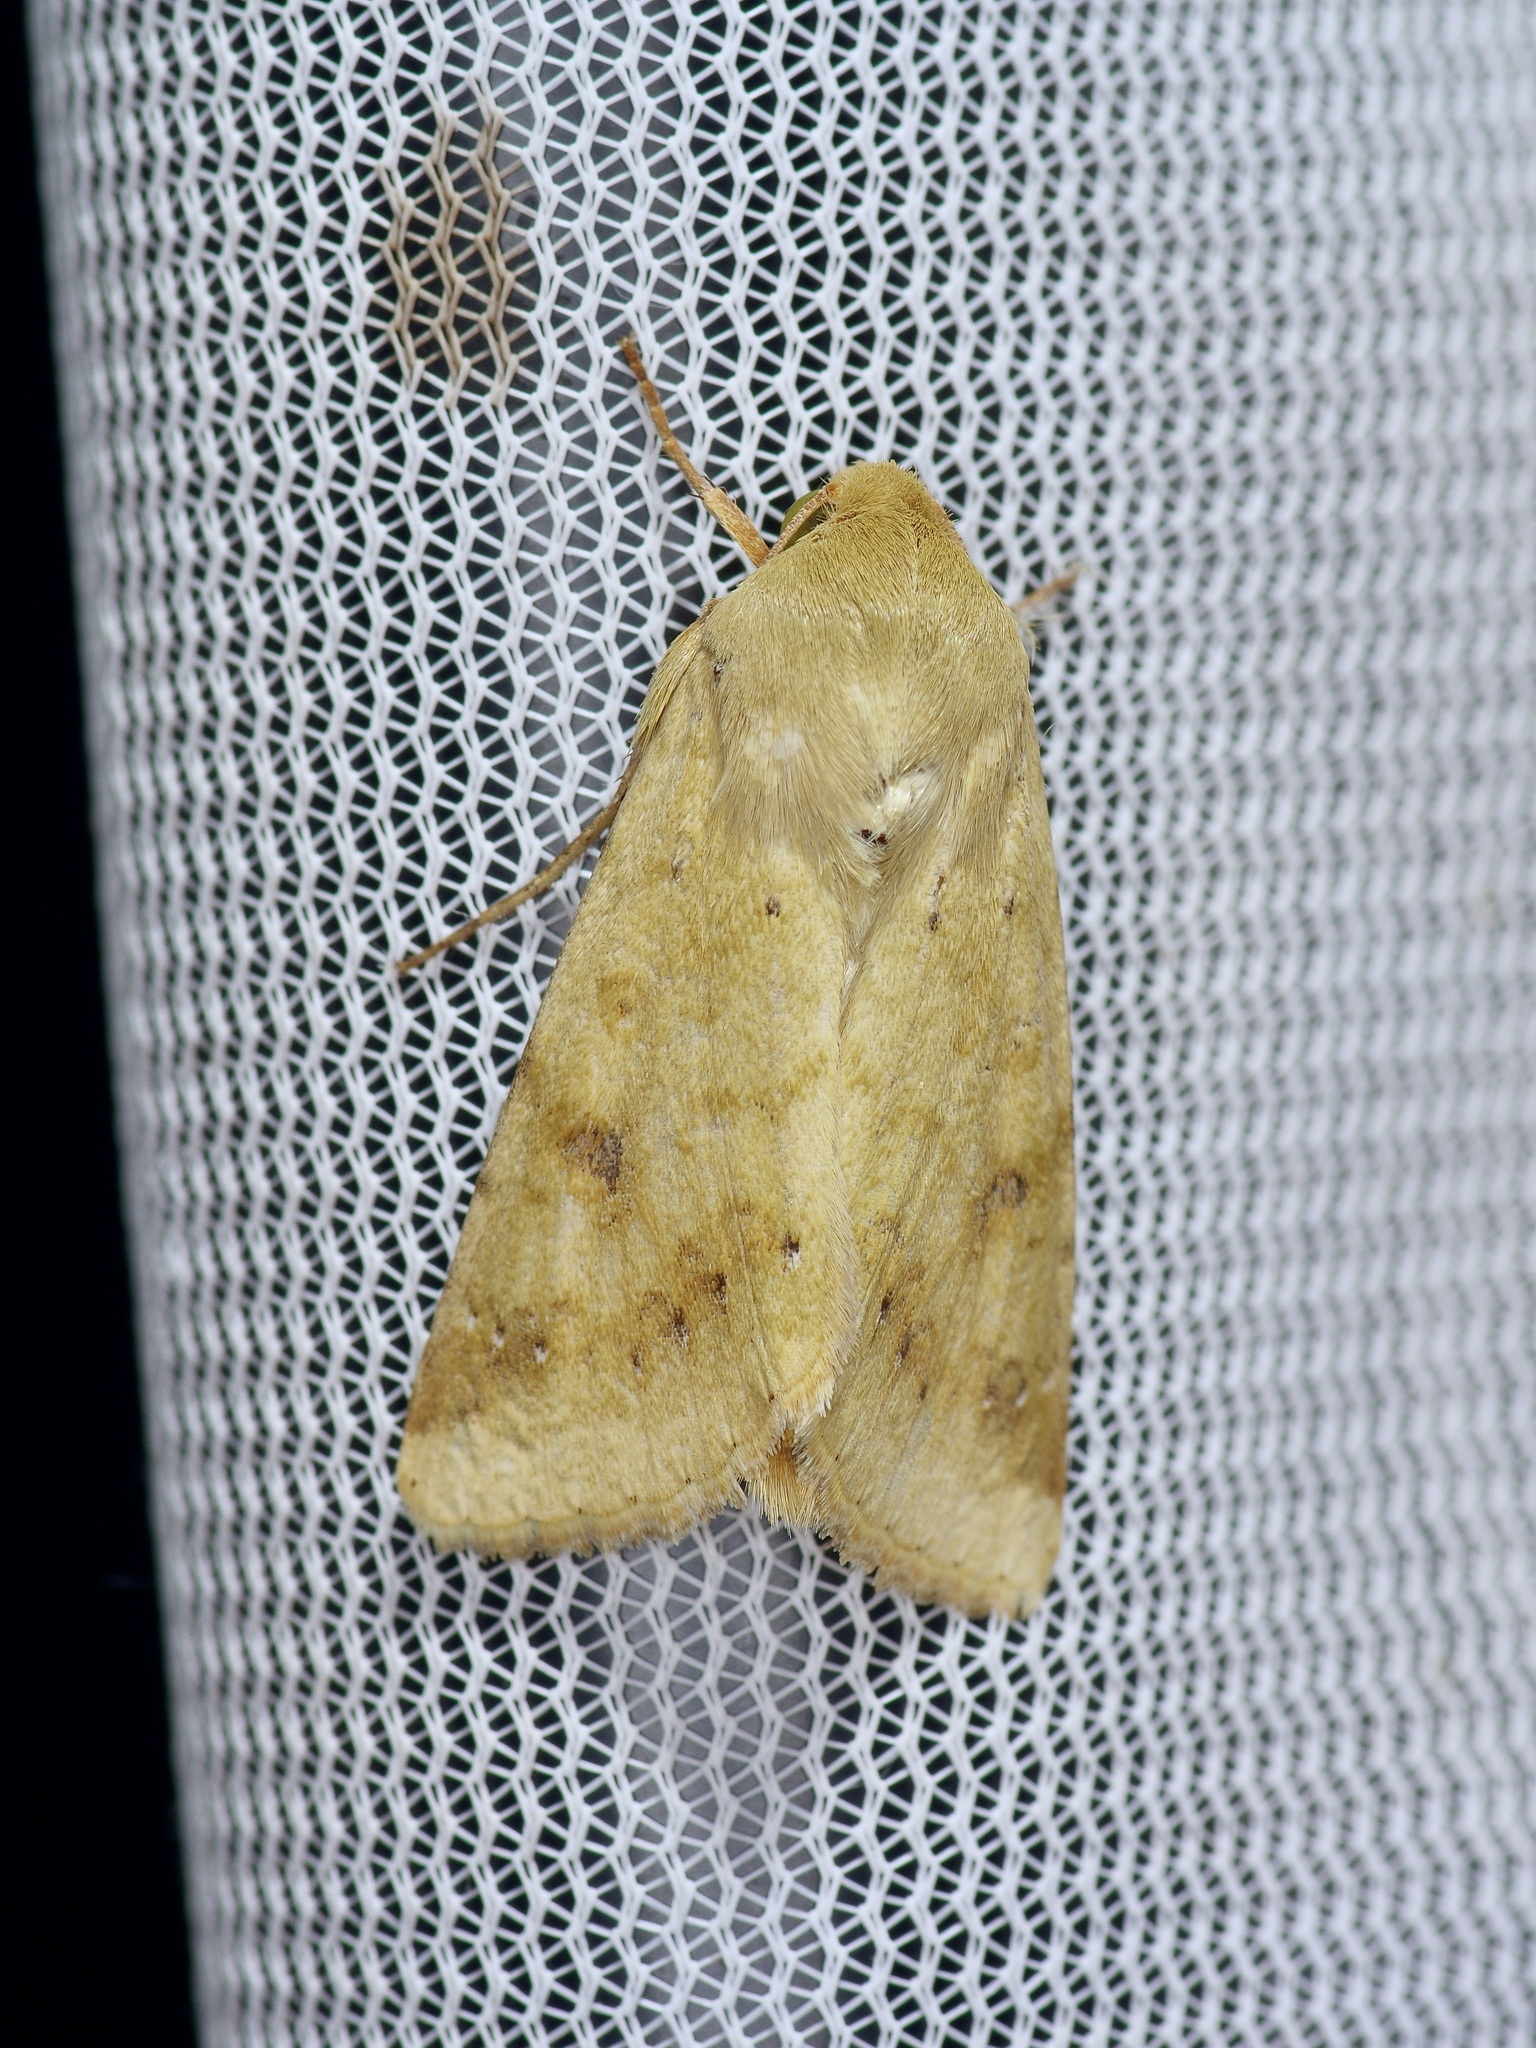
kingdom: Animalia
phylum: Arthropoda
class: Insecta
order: Lepidoptera
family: Noctuidae
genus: Helicoverpa
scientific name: Helicoverpa zea
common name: Bollworm
